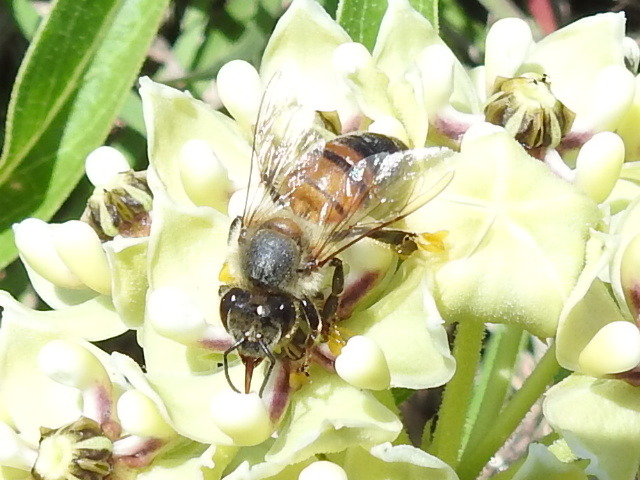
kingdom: Animalia
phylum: Arthropoda
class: Insecta
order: Hymenoptera
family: Apidae
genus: Apis
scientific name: Apis mellifera
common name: Honey bee
